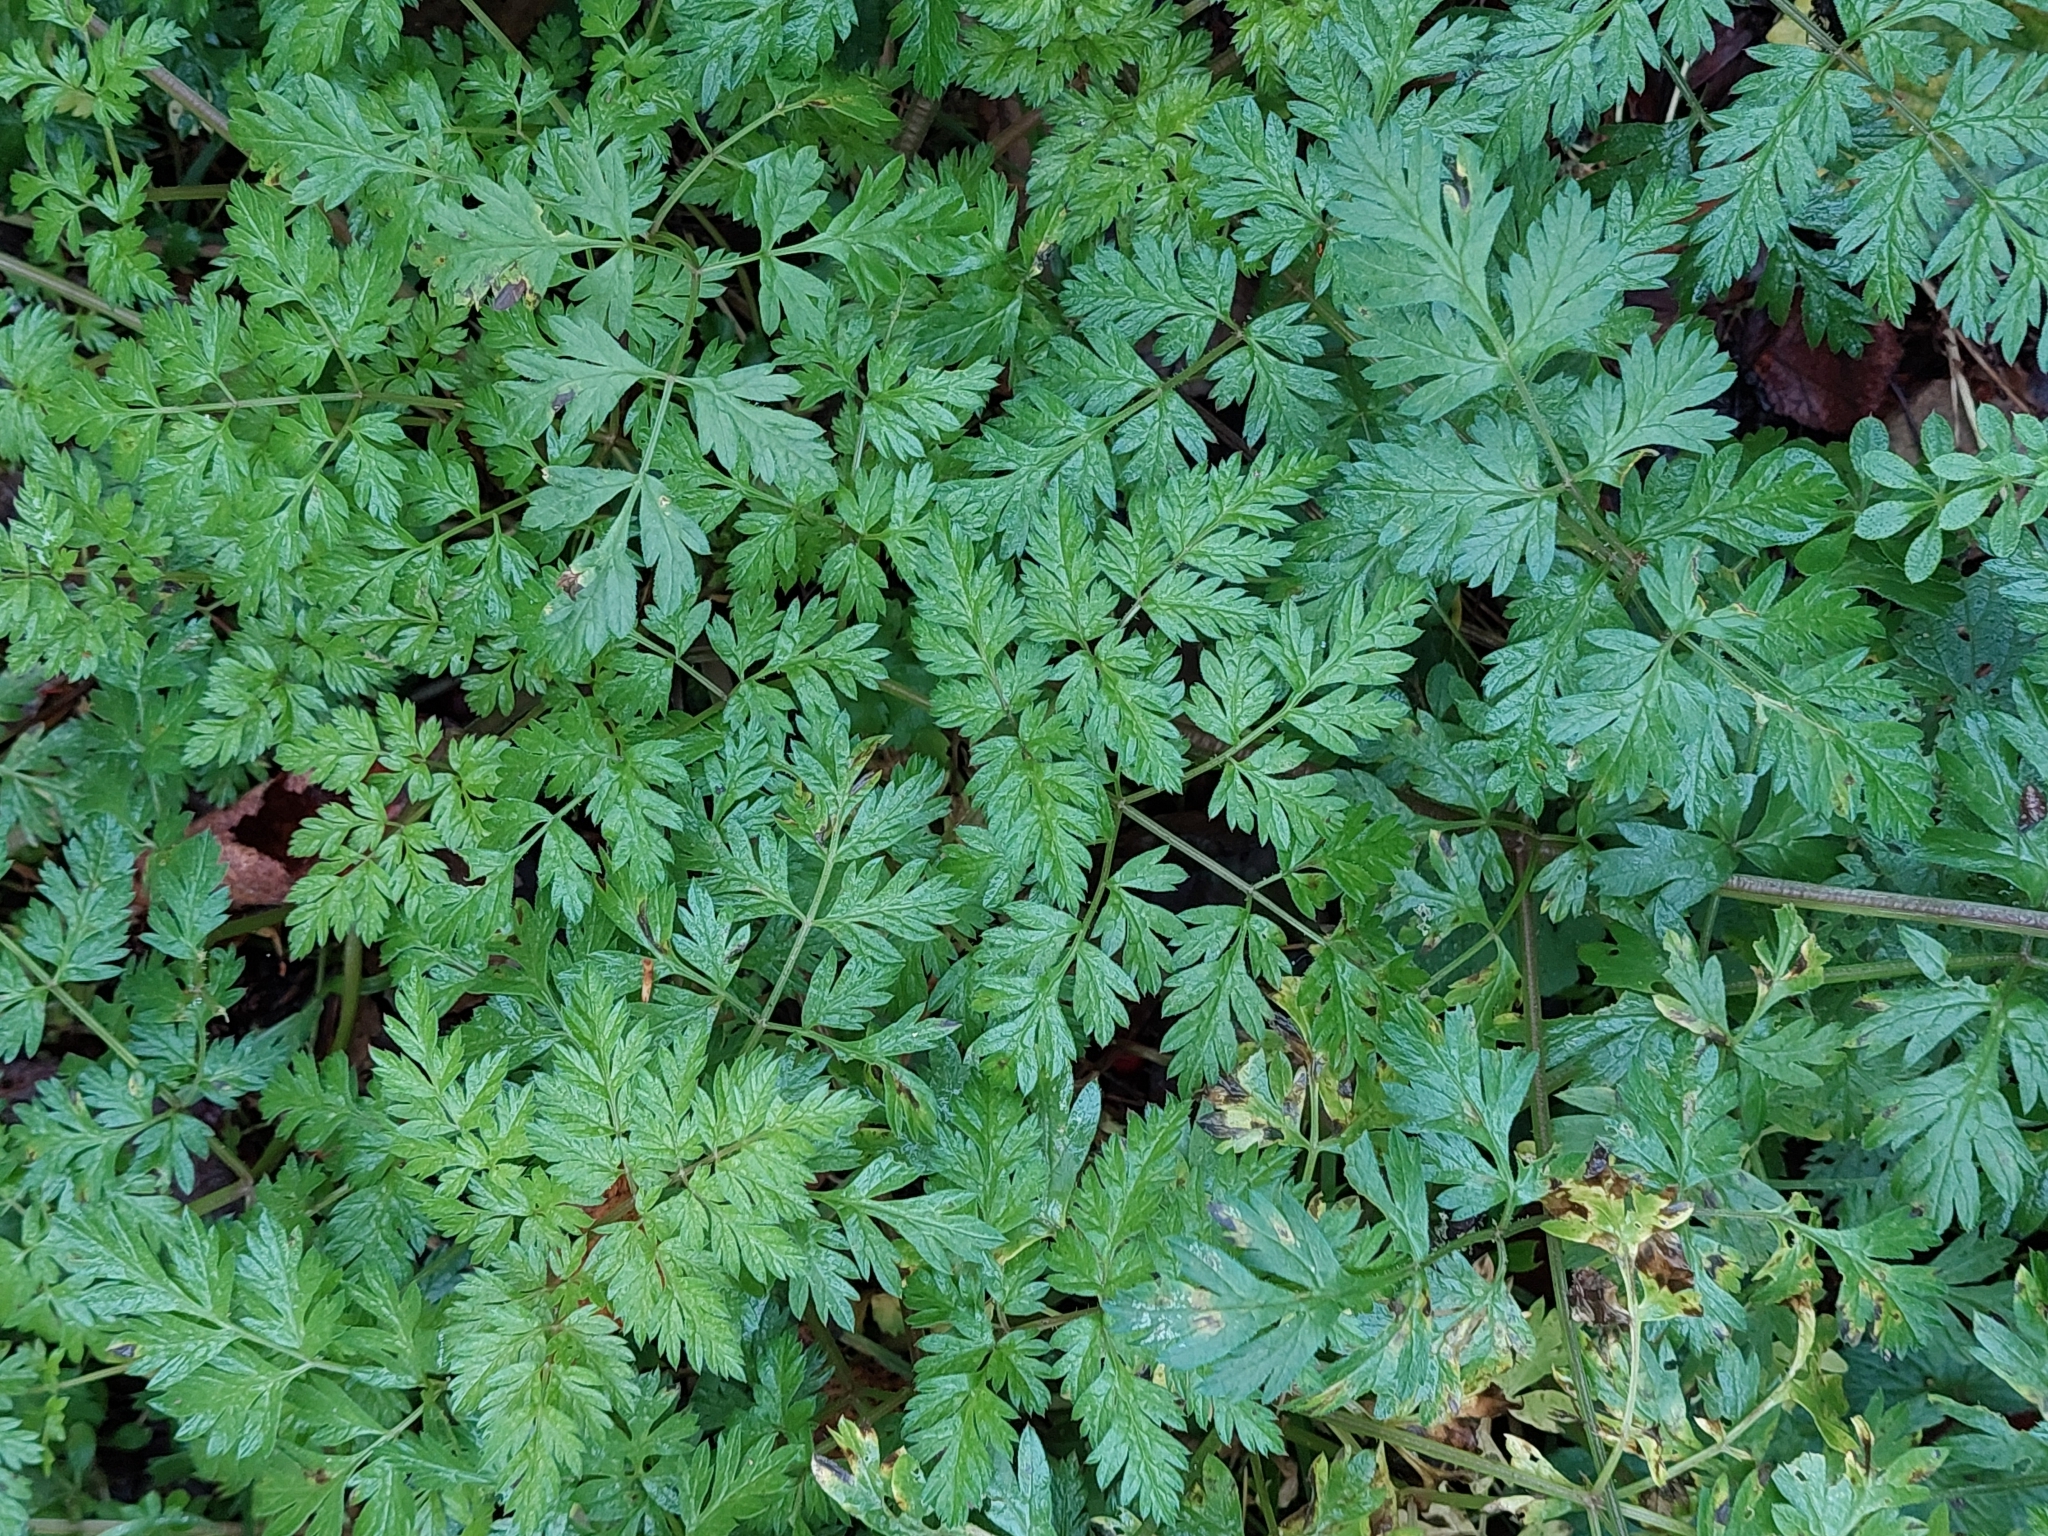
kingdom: Plantae
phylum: Tracheophyta
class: Magnoliopsida
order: Apiales
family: Apiaceae
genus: Anthriscus
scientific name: Anthriscus sylvestris
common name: Cow parsley
